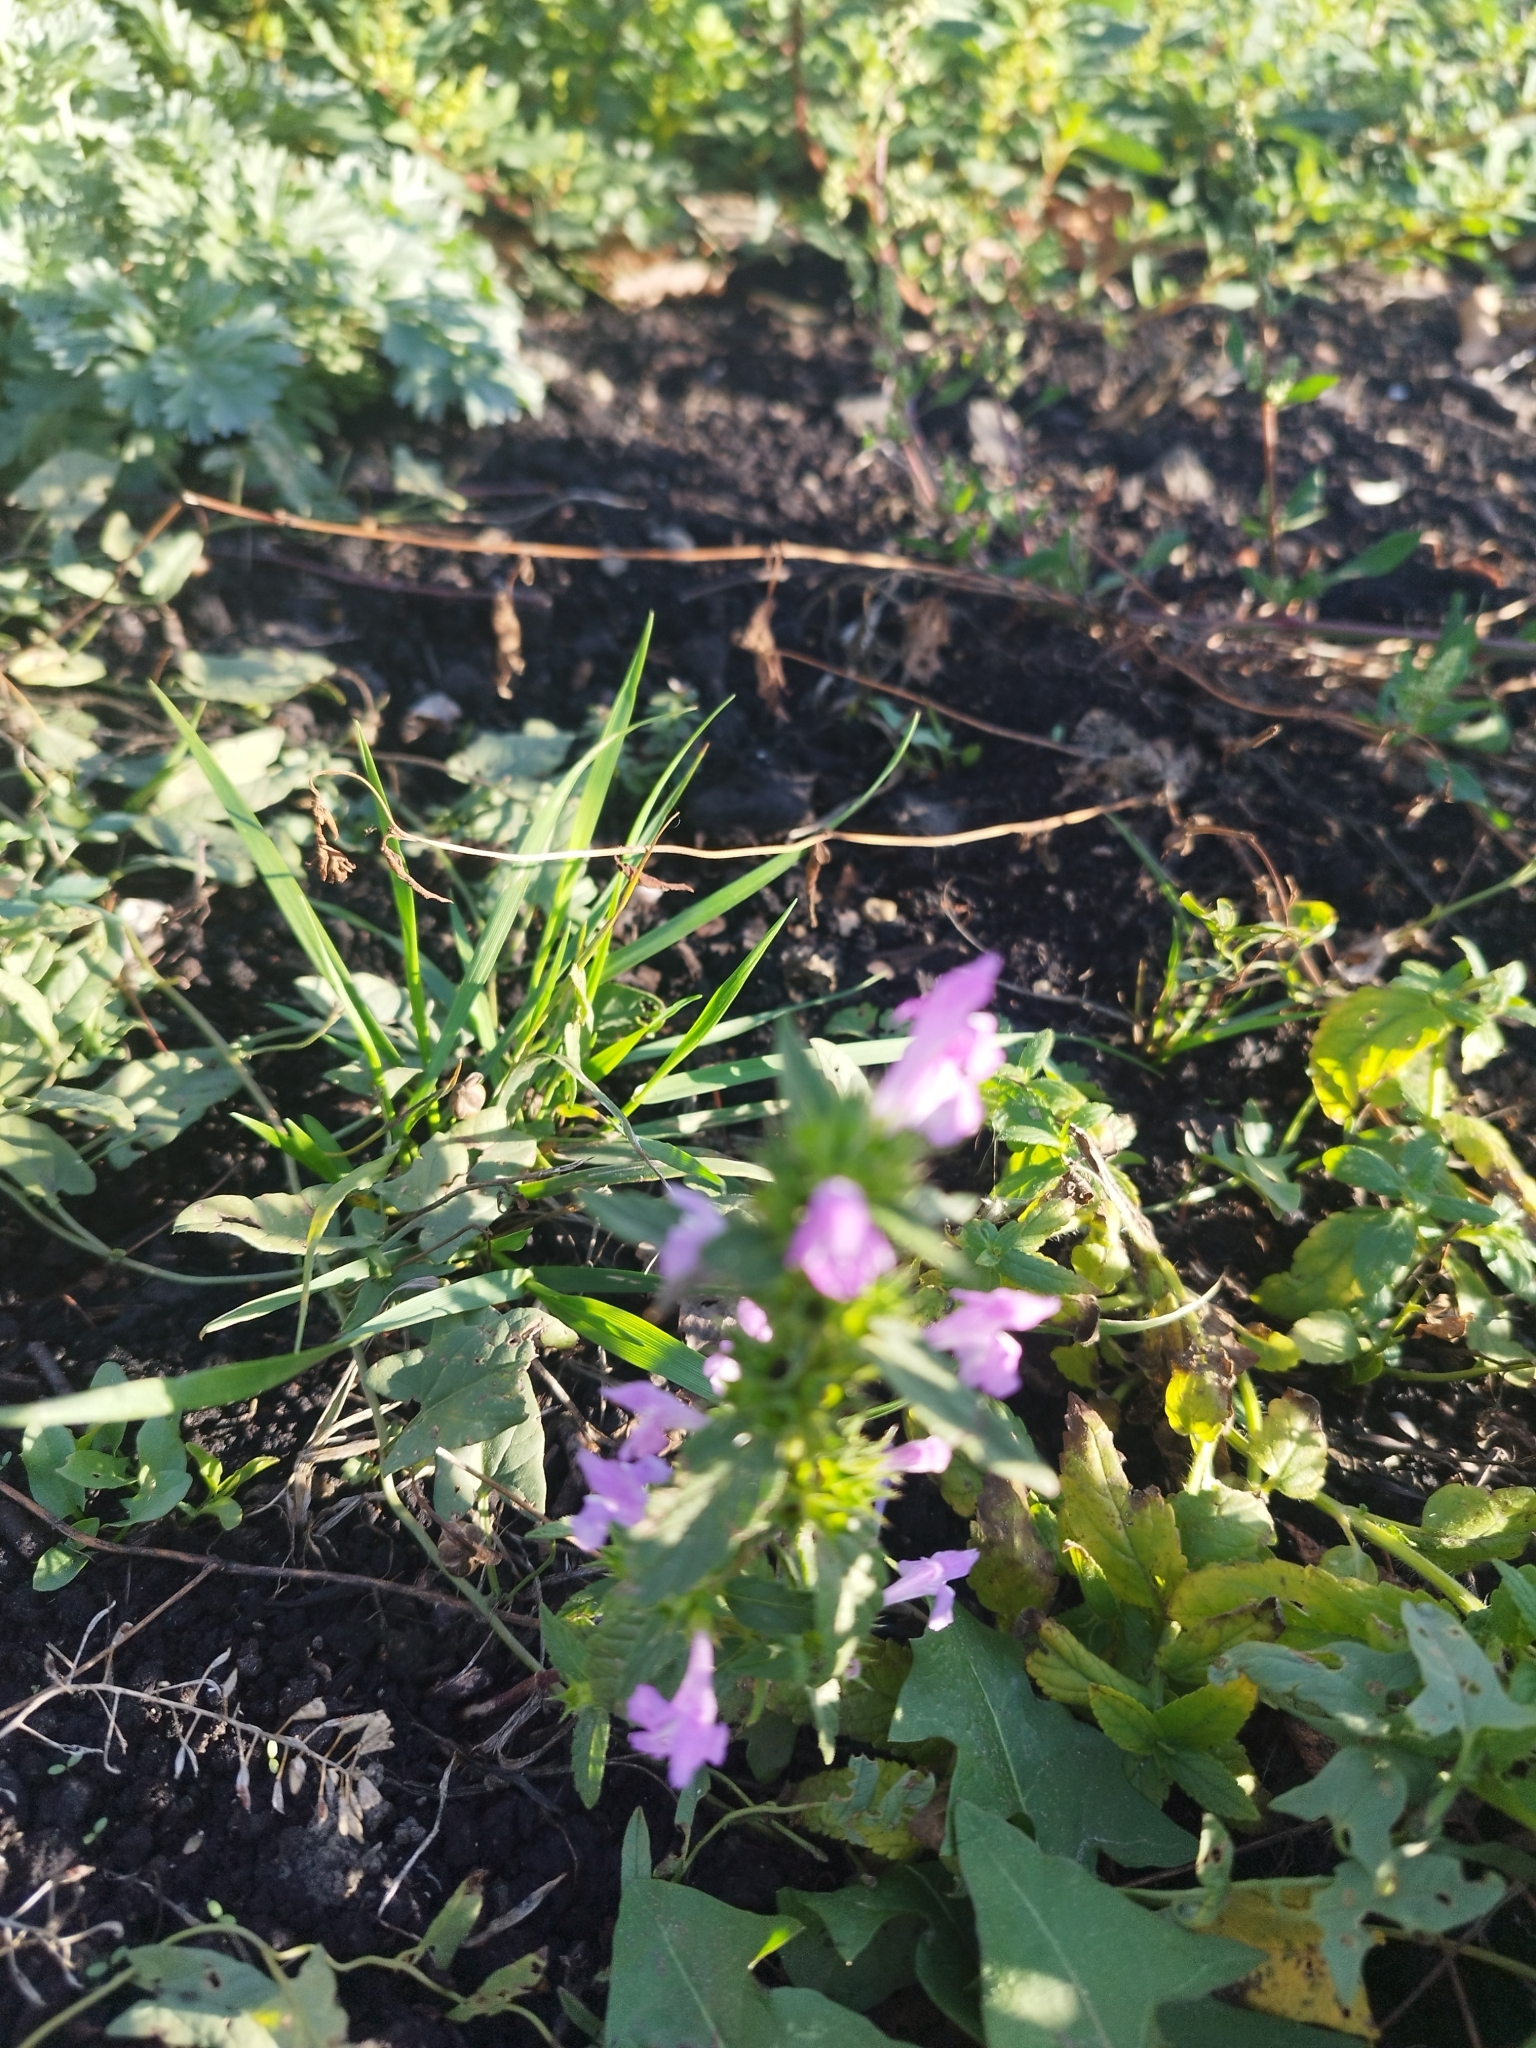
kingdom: Plantae
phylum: Tracheophyta
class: Magnoliopsida
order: Lamiales
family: Lamiaceae
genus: Galeopsis
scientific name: Galeopsis ladanum
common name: Broad-leaved hemp-nettle
